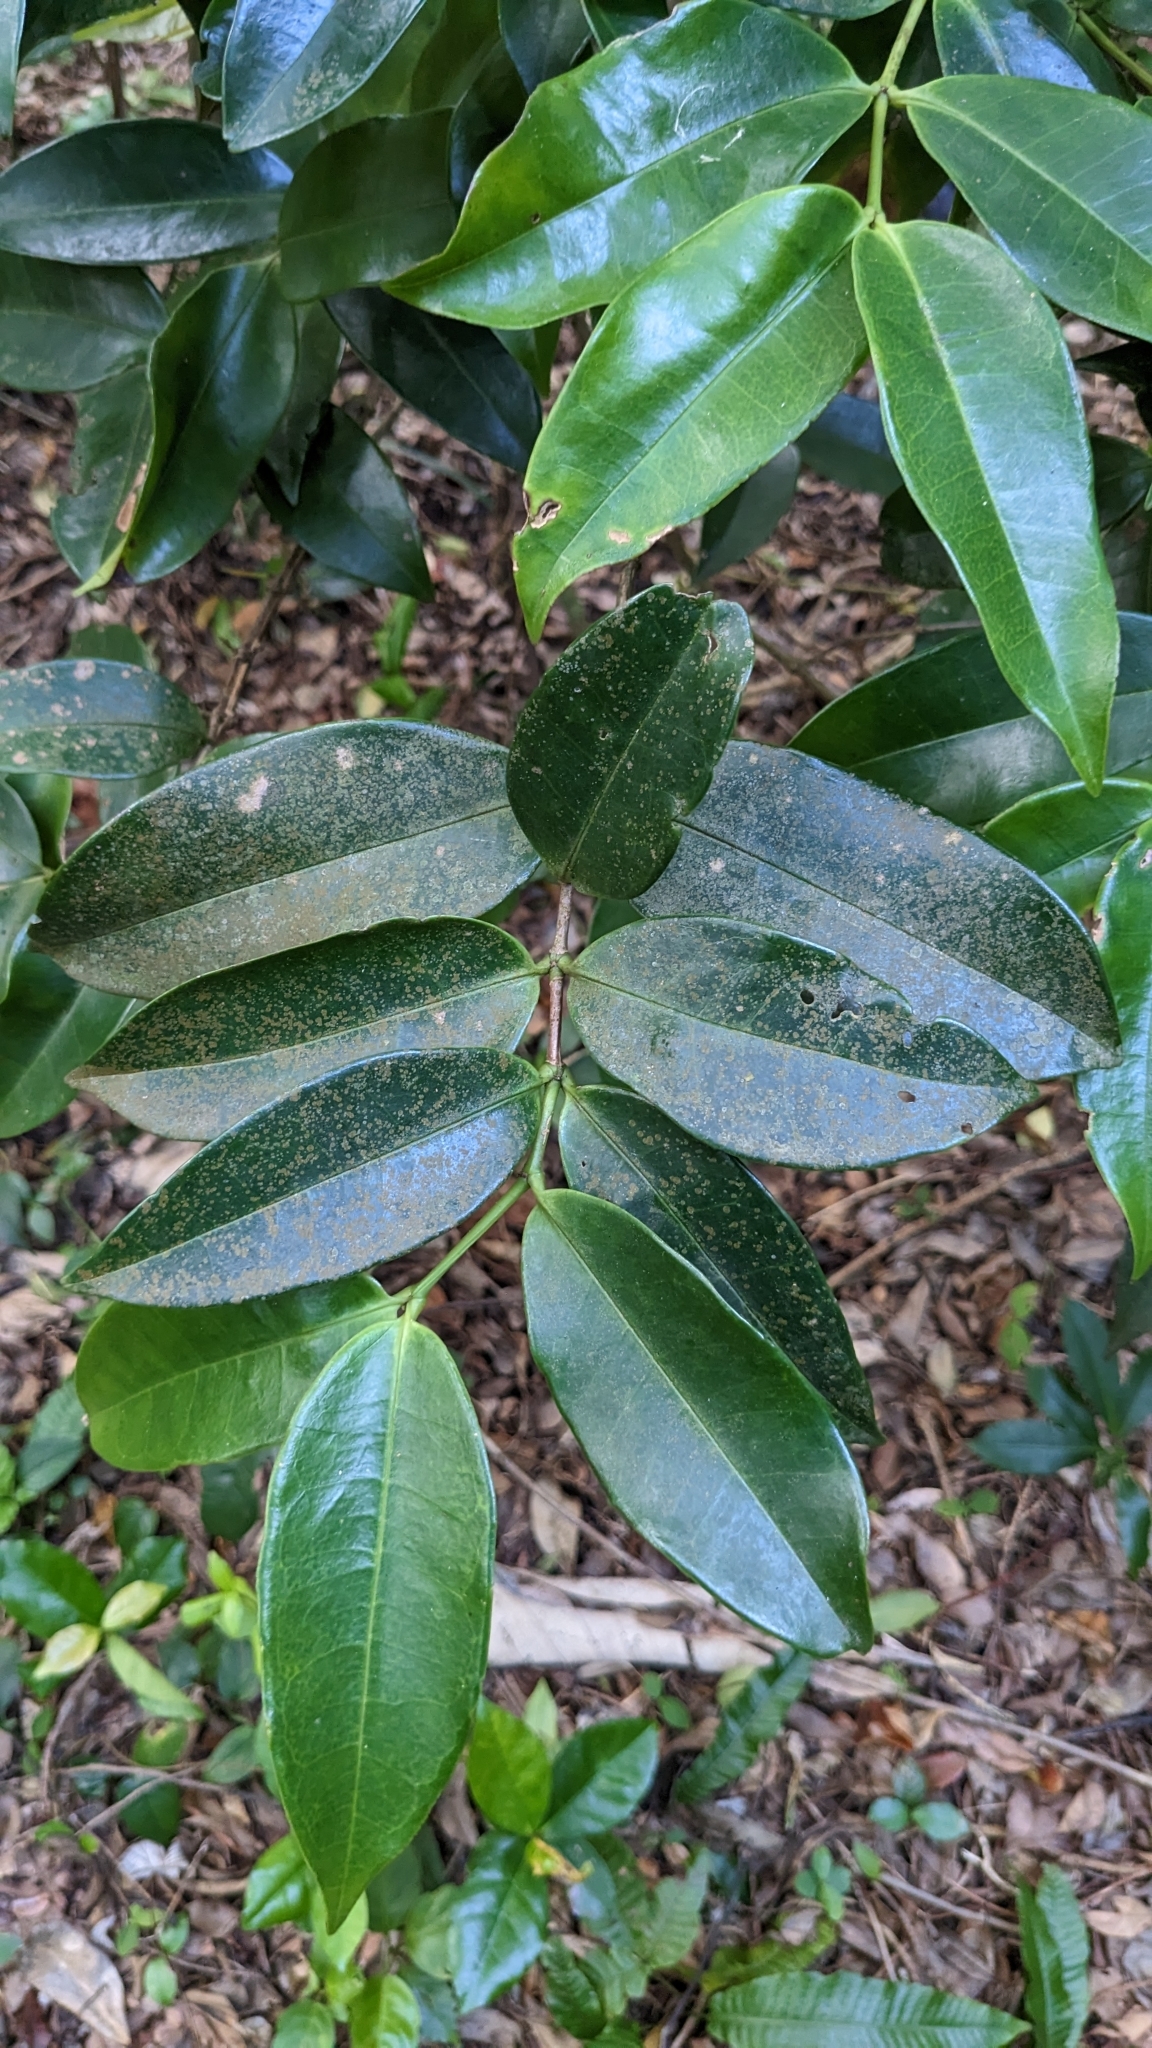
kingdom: Plantae
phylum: Tracheophyta
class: Magnoliopsida
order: Myrtales
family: Melastomataceae
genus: Memecylon
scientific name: Memecylon lanceolatum
